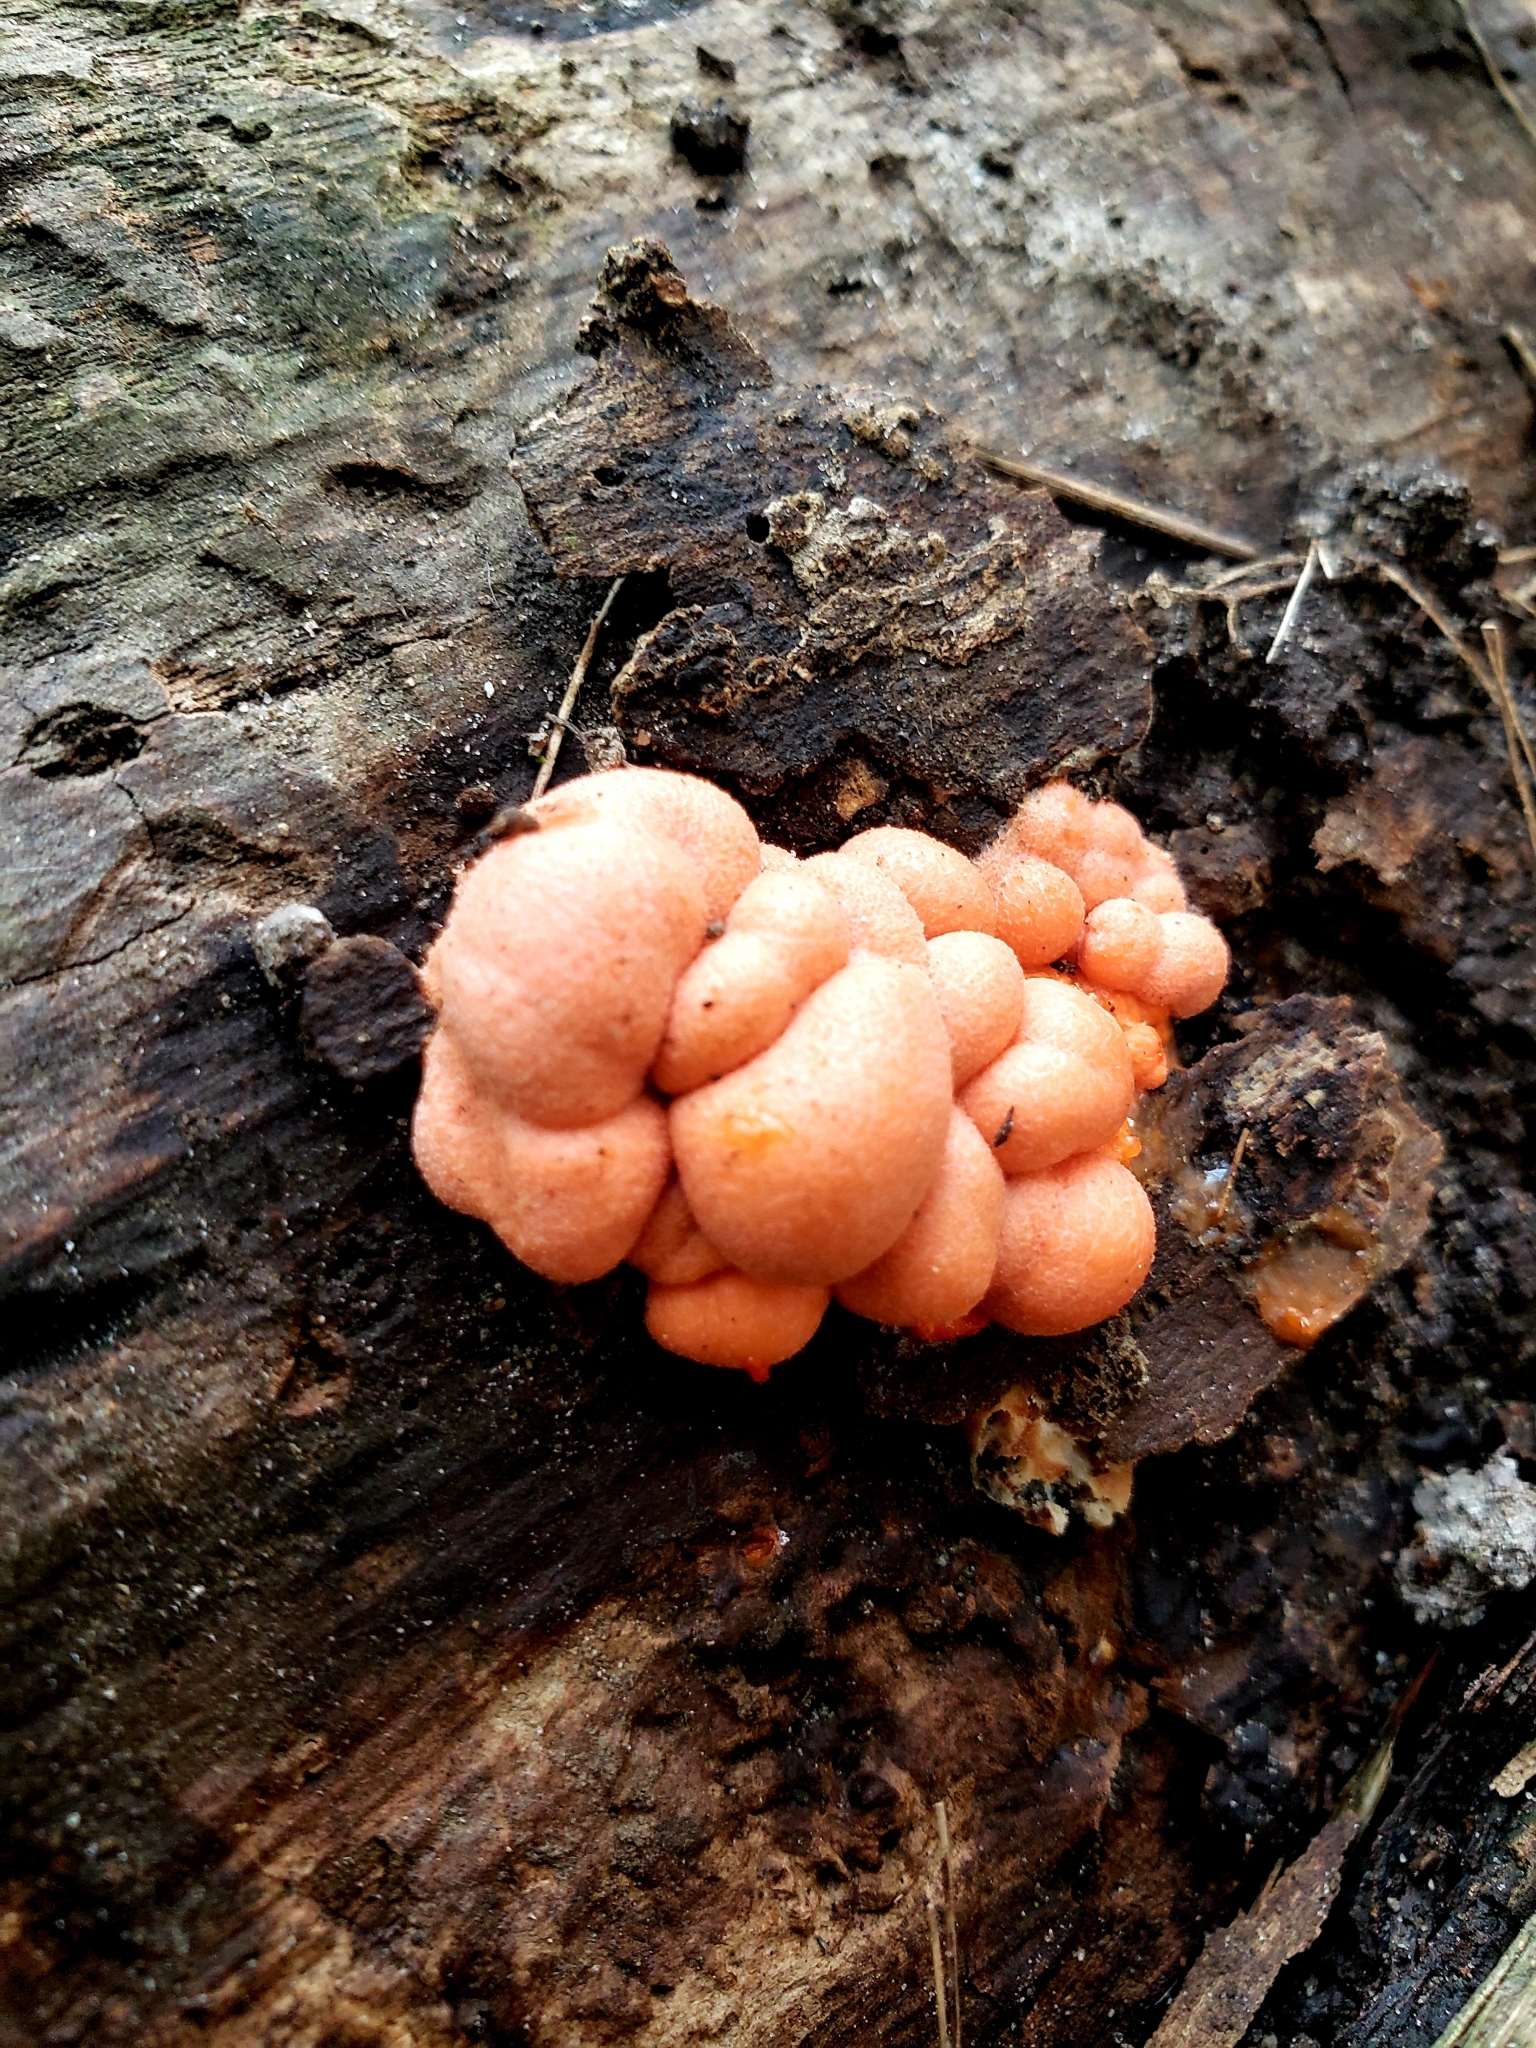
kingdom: Protozoa
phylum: Mycetozoa
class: Myxomycetes
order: Cribrariales
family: Tubiferaceae
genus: Lycogala
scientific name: Lycogala epidendrum
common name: Wolf's milk
